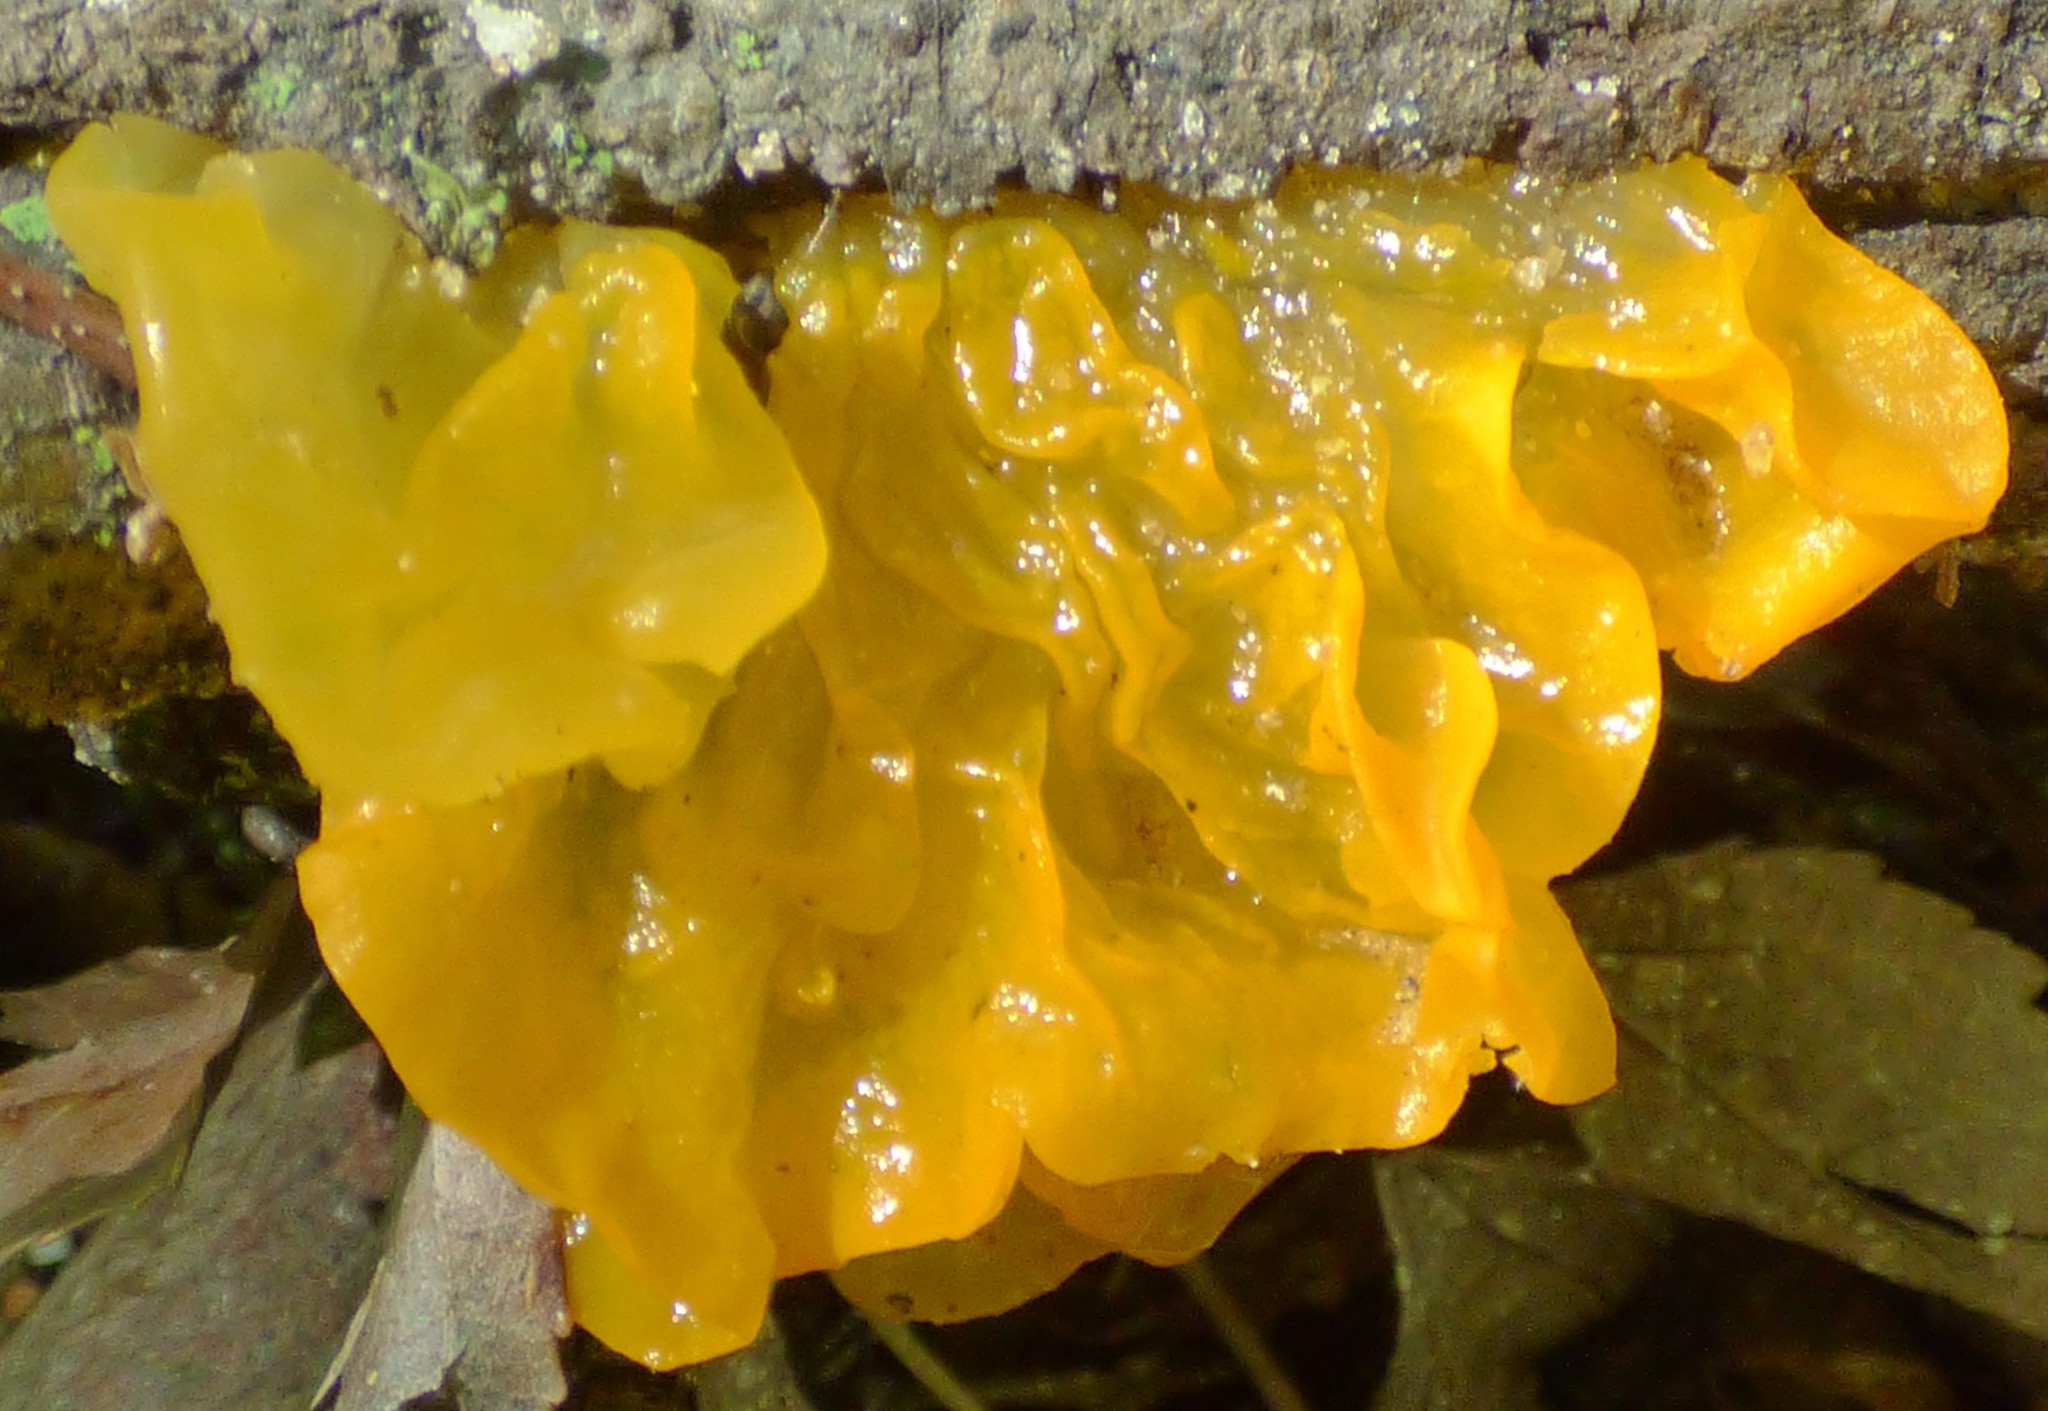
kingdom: Fungi
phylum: Basidiomycota
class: Tremellomycetes
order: Tremellales
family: Tremellaceae
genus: Tremella
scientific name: Tremella mesenterica
